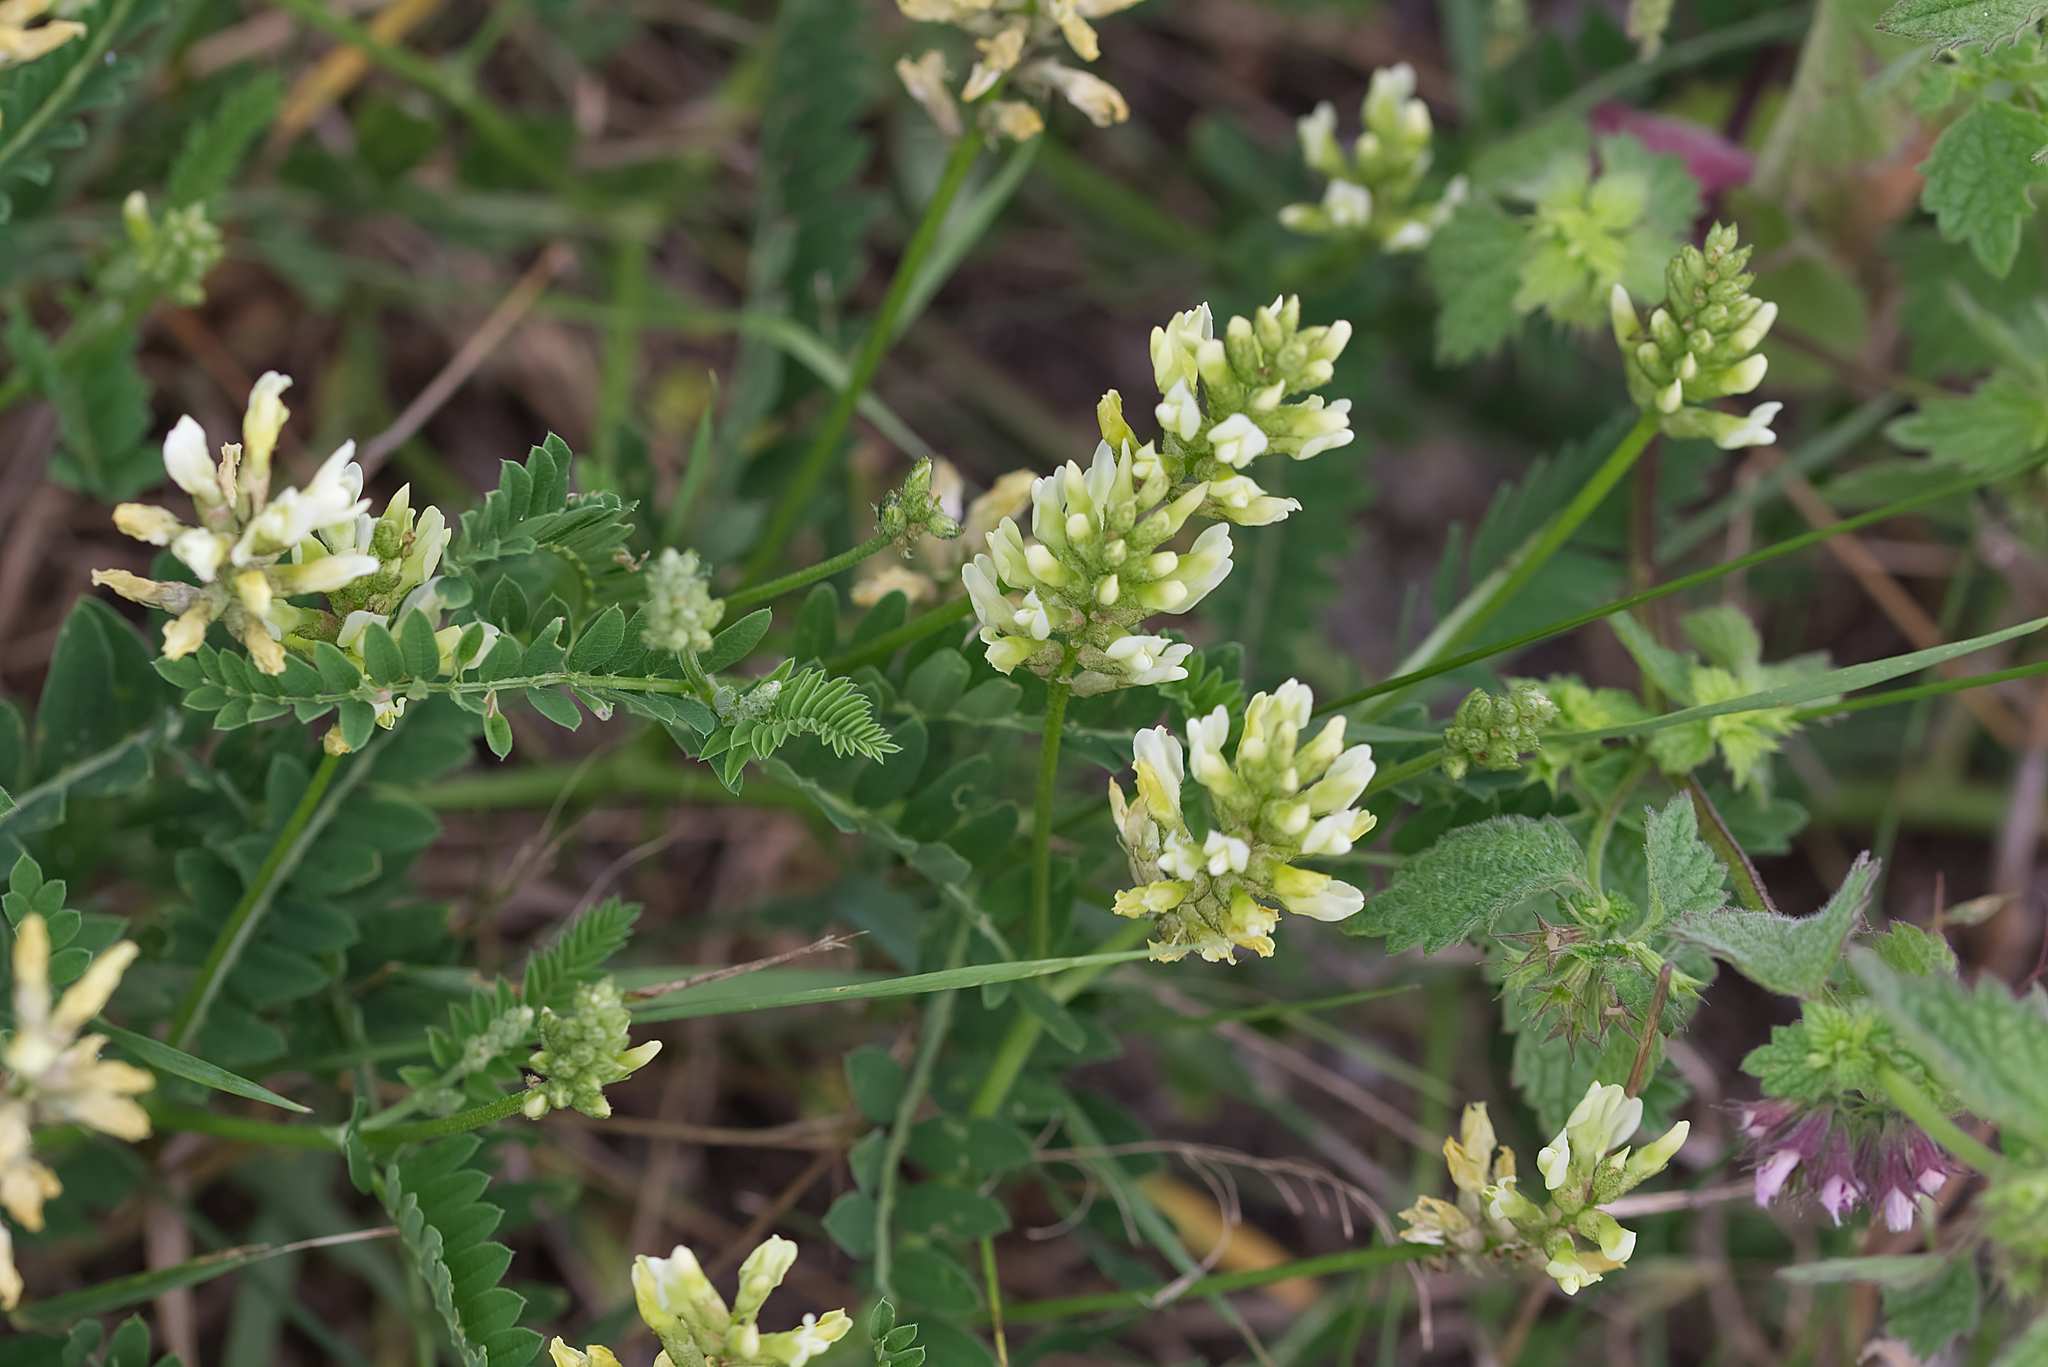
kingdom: Plantae
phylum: Tracheophyta
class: Magnoliopsida
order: Fabales
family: Fabaceae
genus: Astragalus
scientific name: Astragalus cicer
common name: Chick-pea milk-vetch
